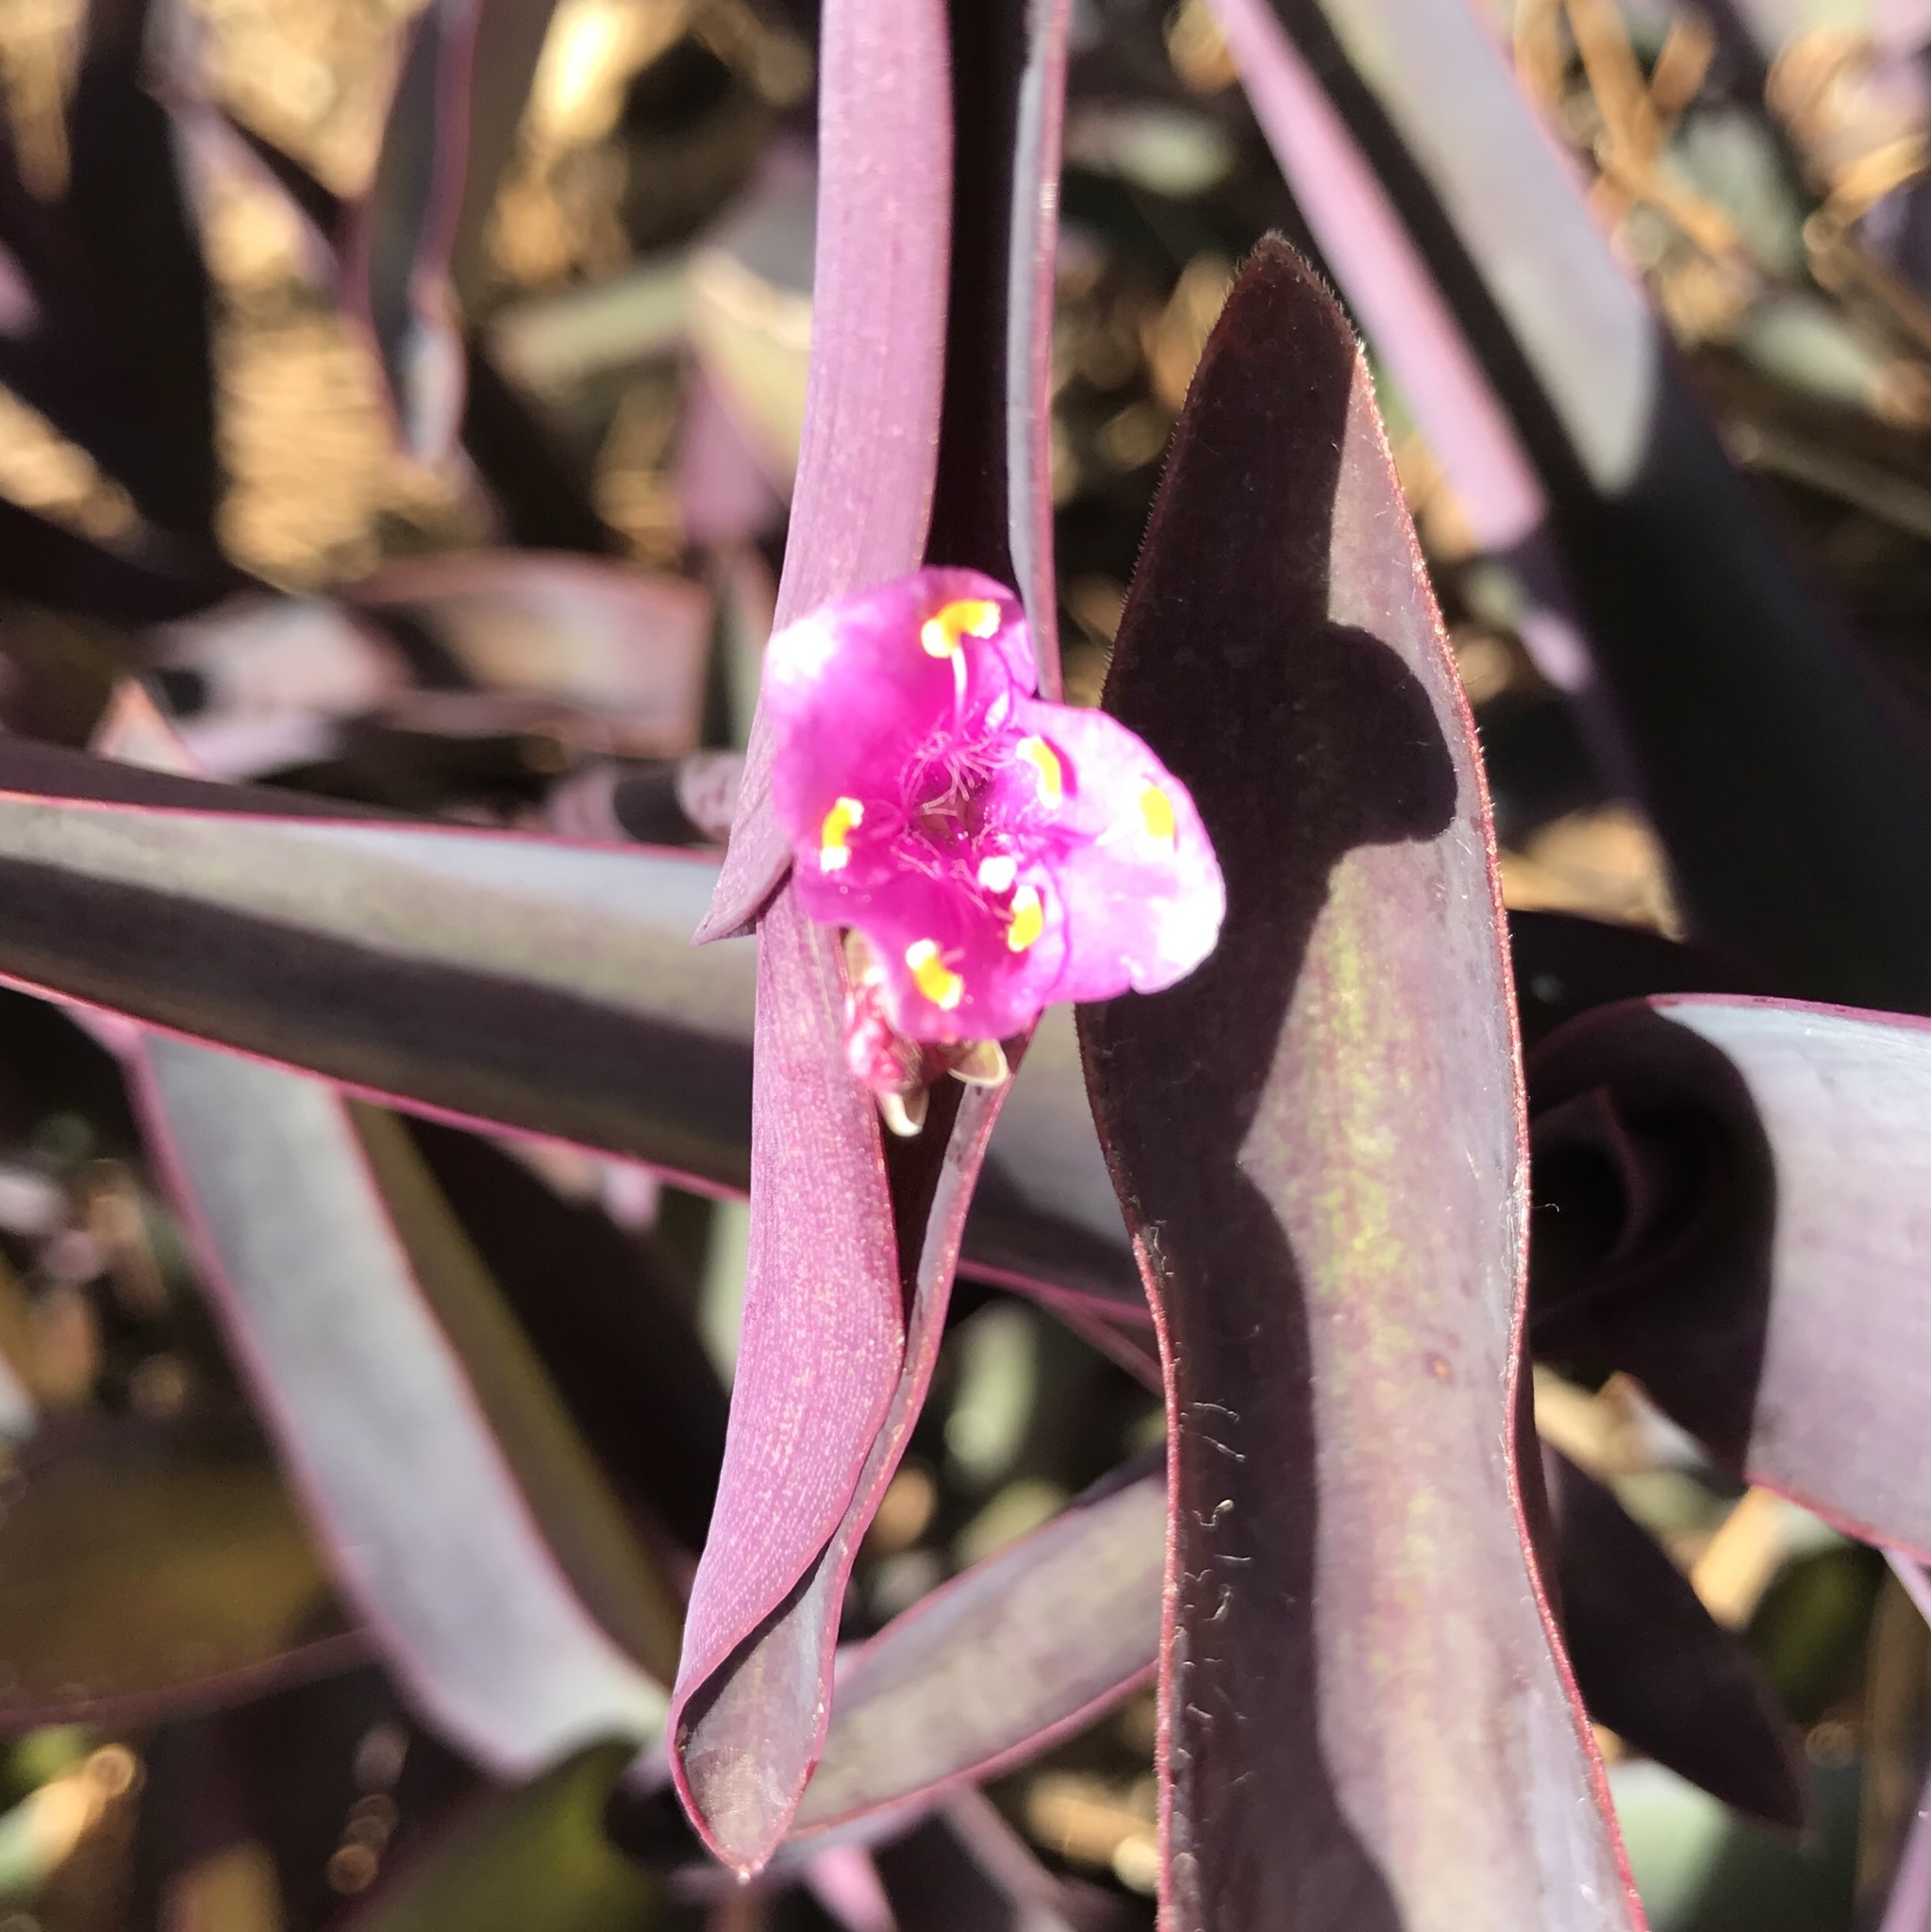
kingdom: Plantae
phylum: Tracheophyta
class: Liliopsida
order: Commelinales
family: Commelinaceae
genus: Tradescantia
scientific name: Tradescantia pallida
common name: Purpleheart
